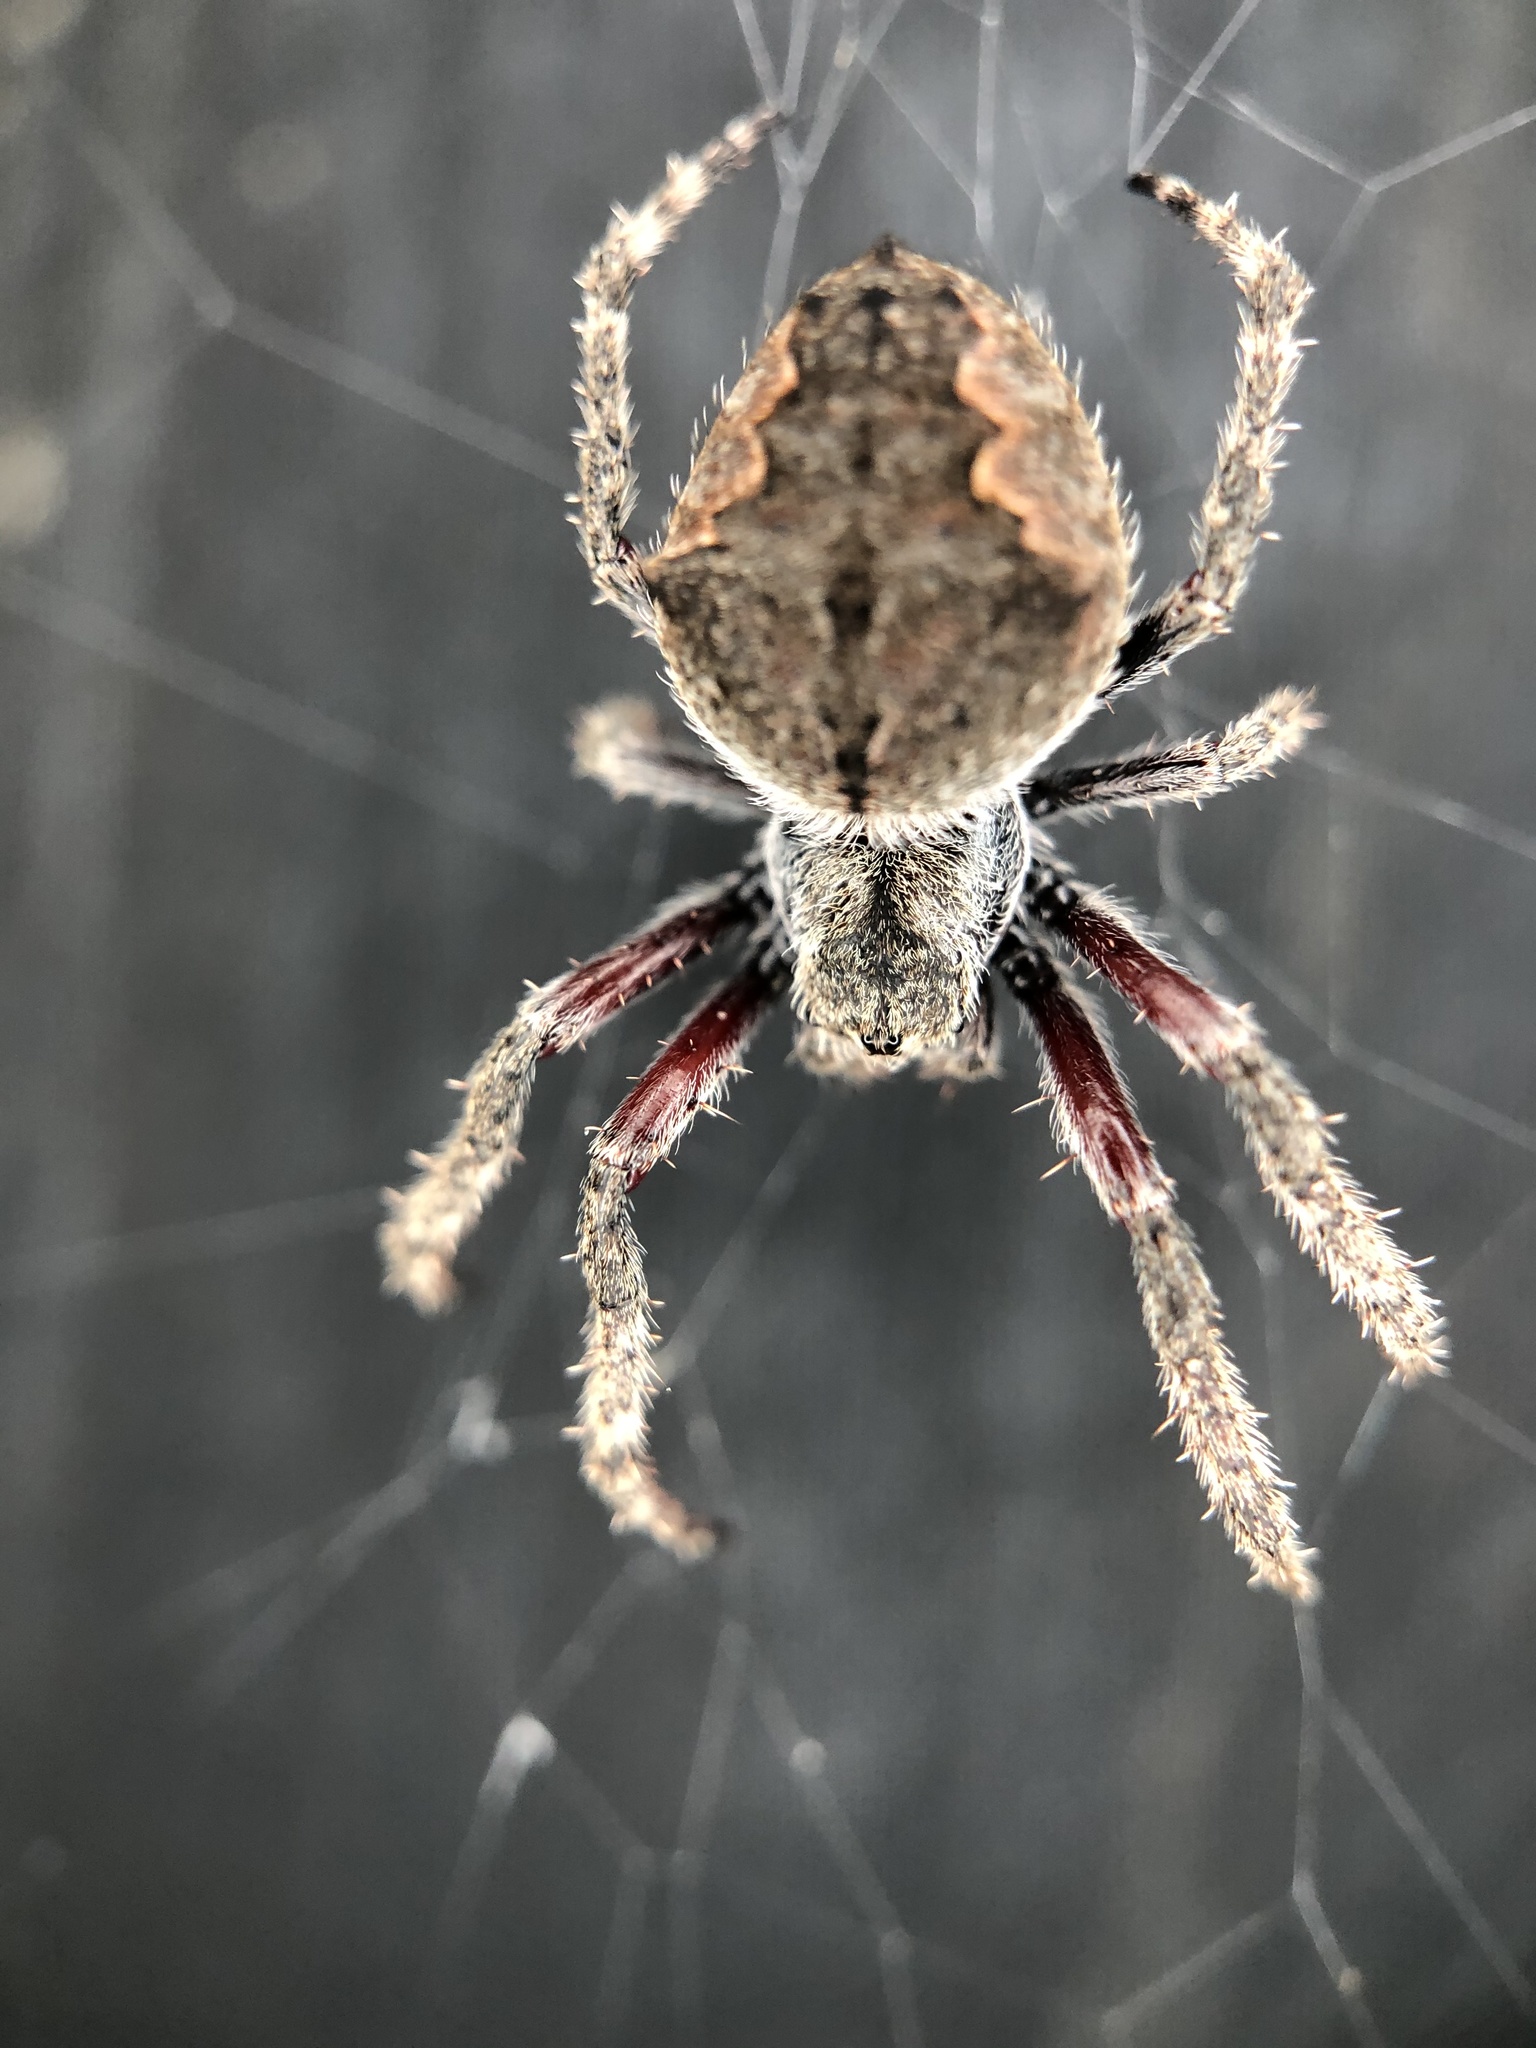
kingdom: Animalia
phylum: Arthropoda
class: Arachnida
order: Araneae
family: Araneidae
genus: Eriophora
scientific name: Eriophora pustulosa
